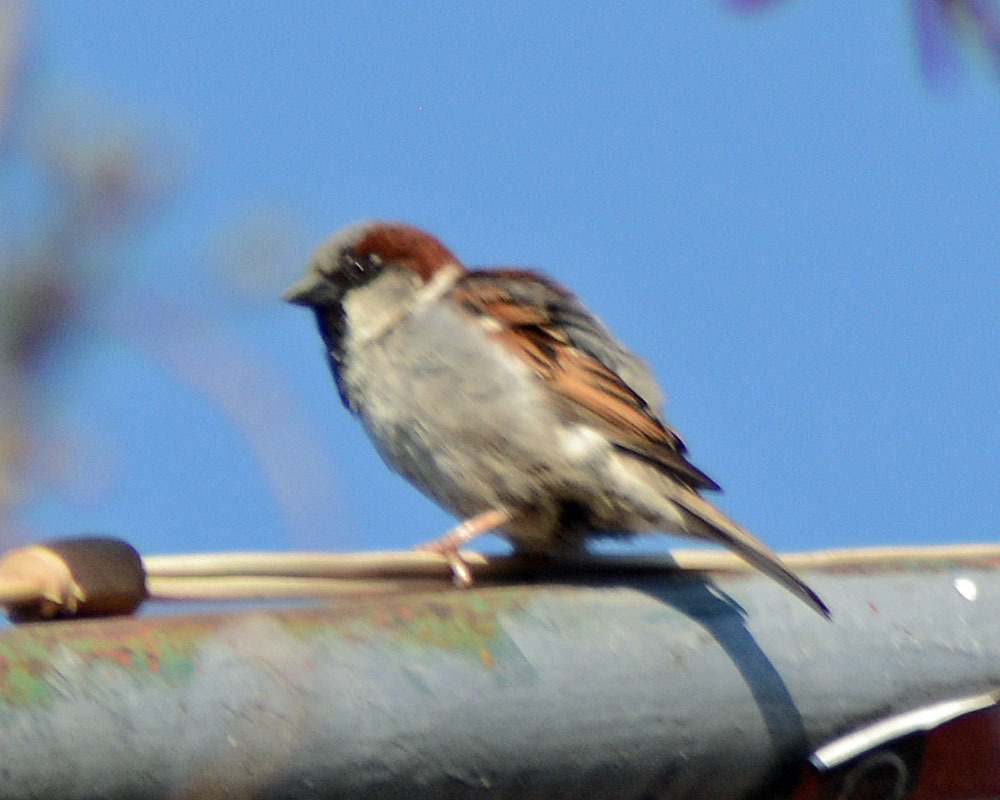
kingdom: Animalia
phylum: Chordata
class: Aves
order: Passeriformes
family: Passeridae
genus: Passer
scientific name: Passer domesticus
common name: House sparrow
